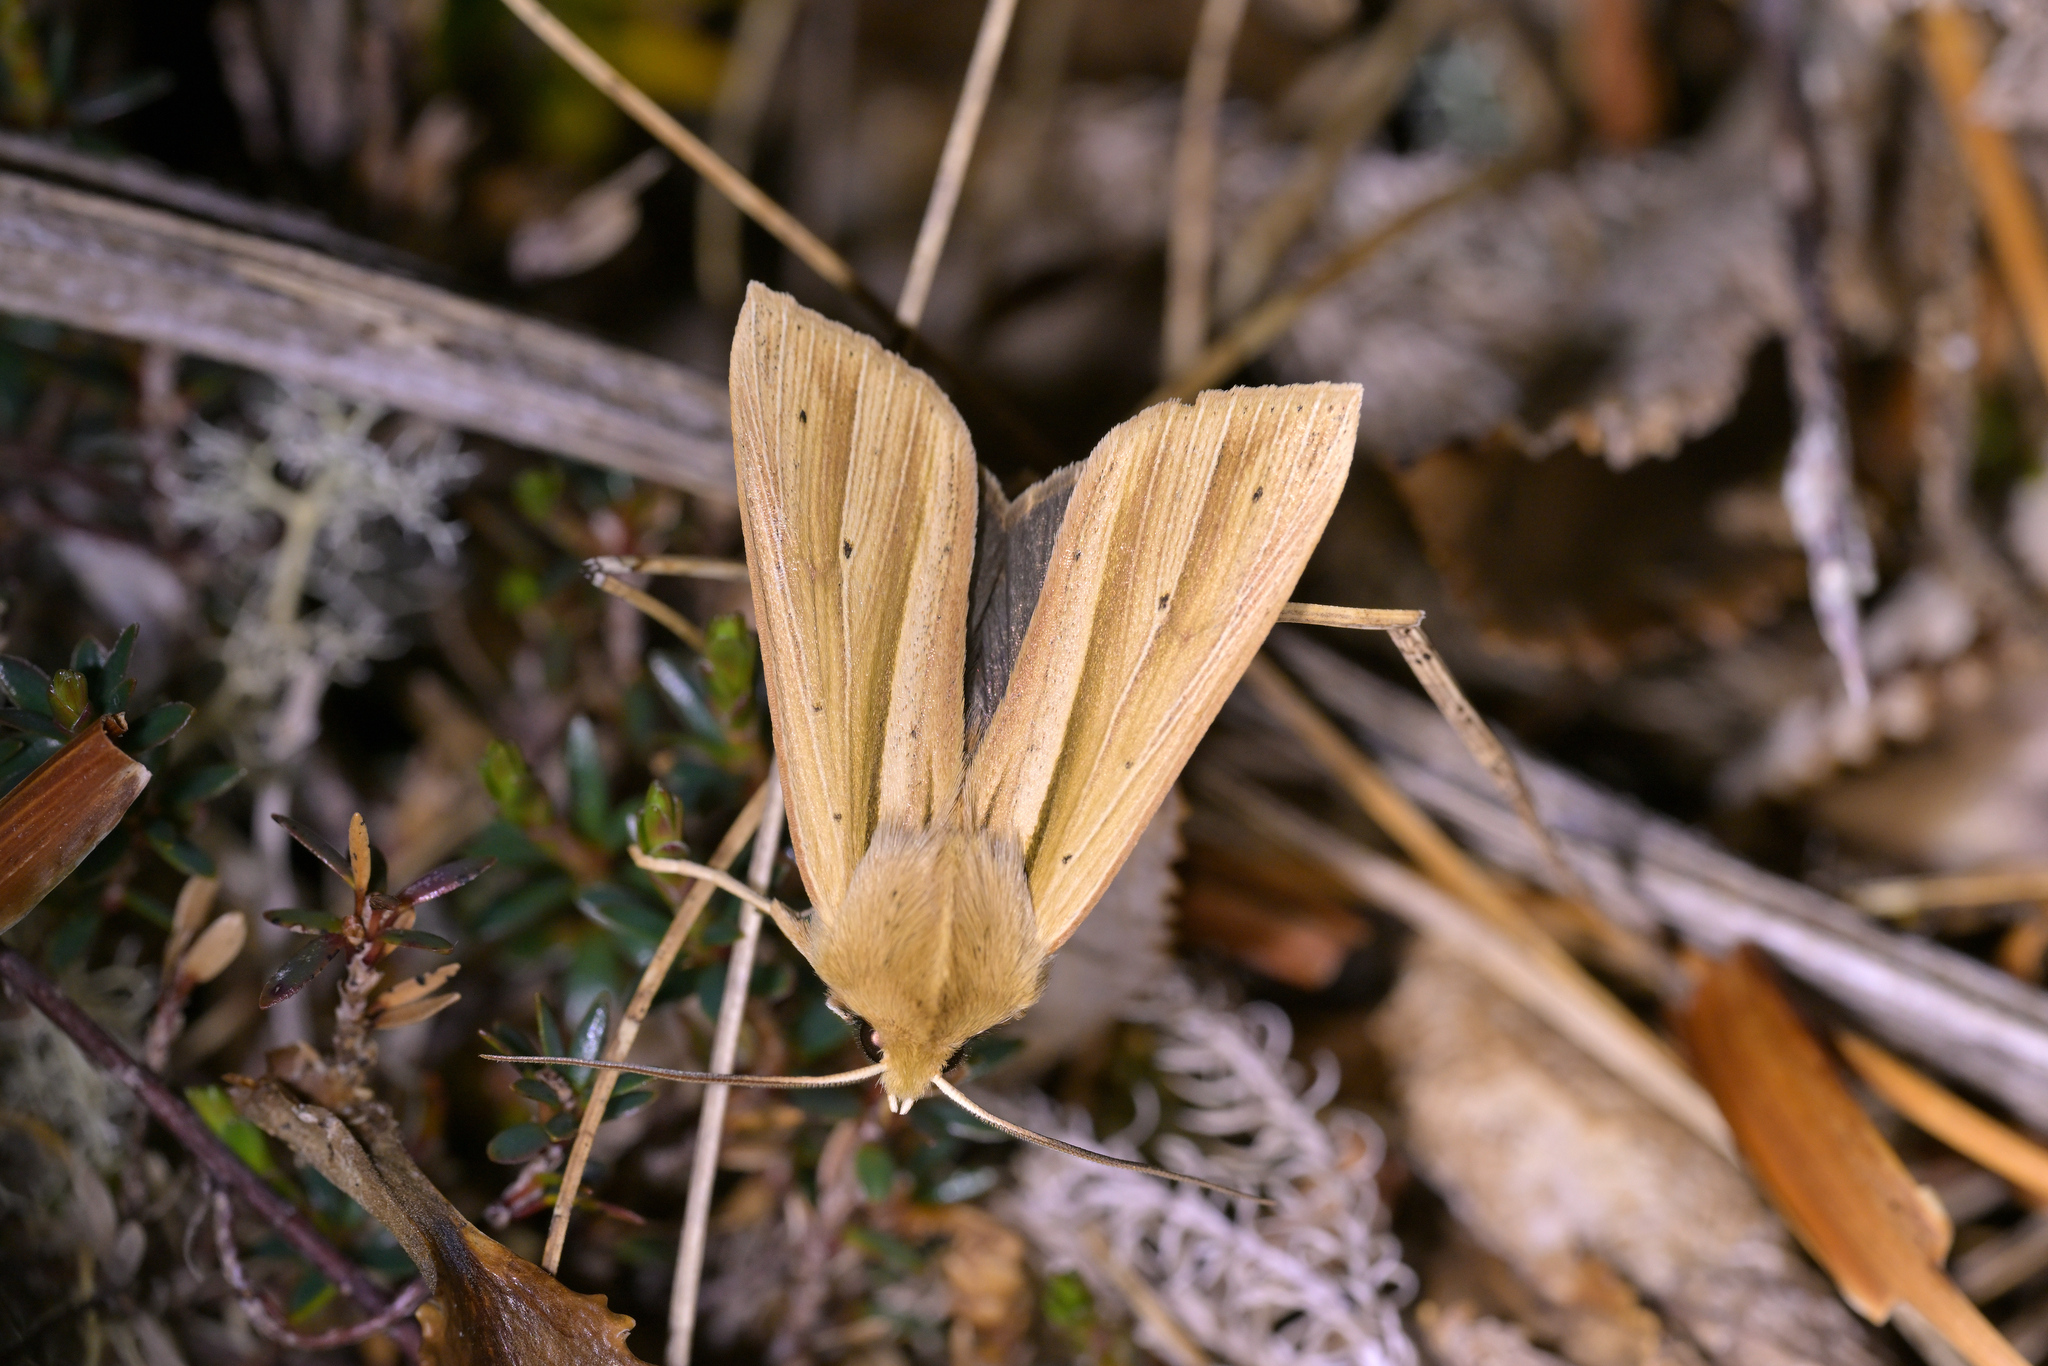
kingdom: Animalia
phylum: Arthropoda
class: Insecta
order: Lepidoptera
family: Noctuidae
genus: Ichneutica
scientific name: Ichneutica sulcana
